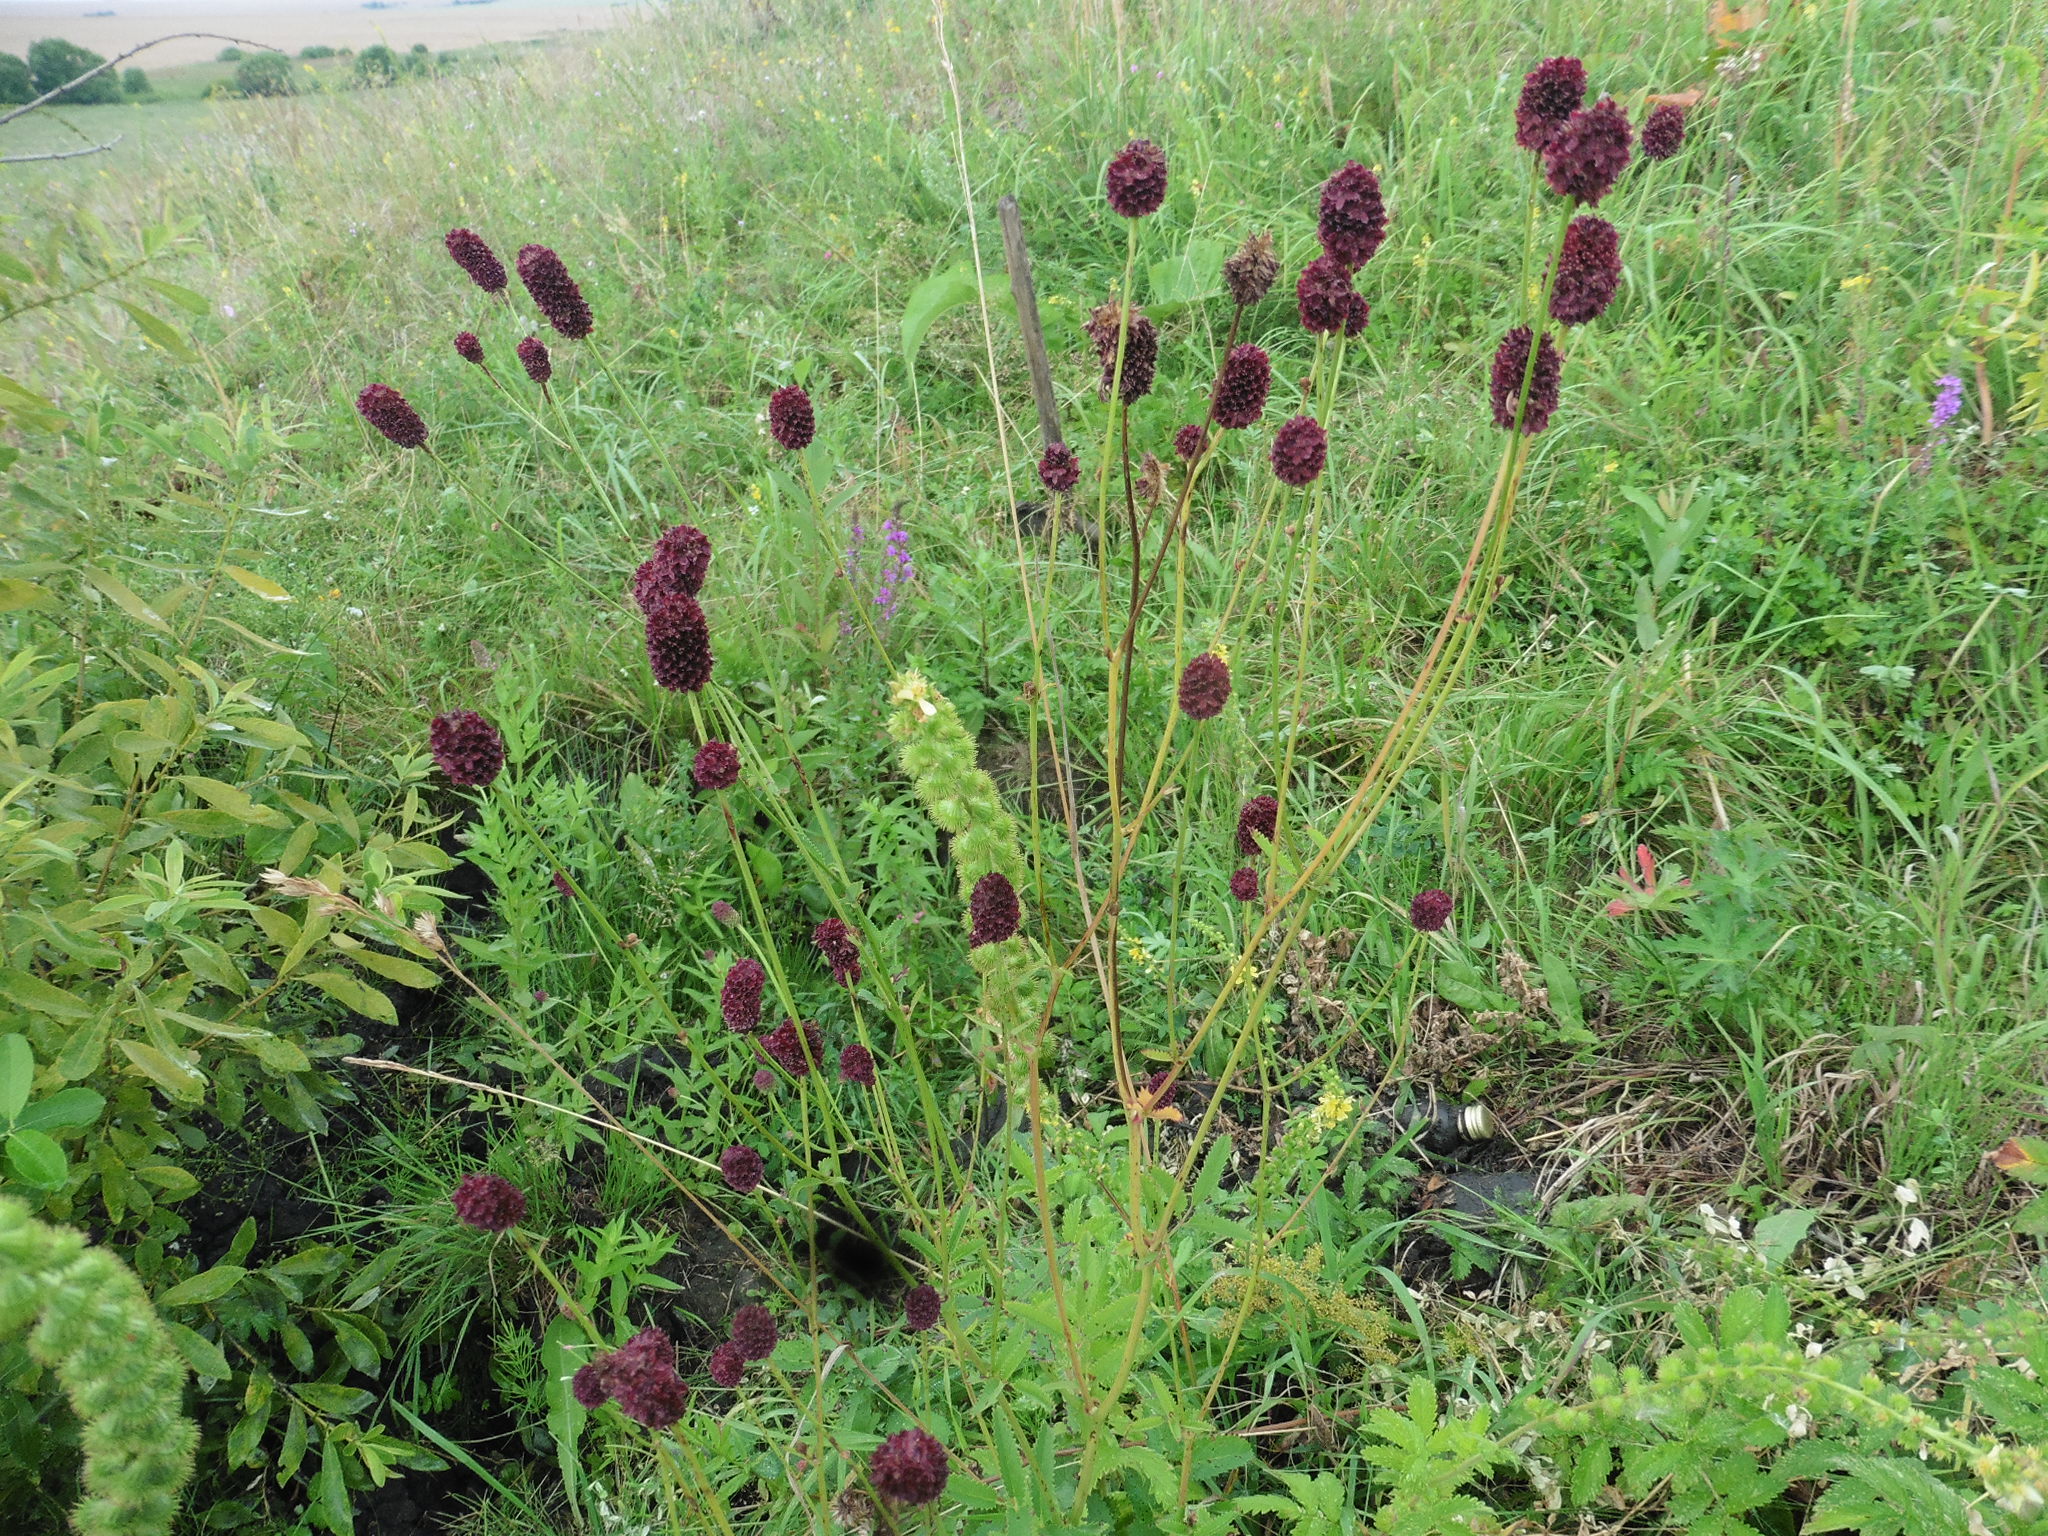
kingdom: Plantae
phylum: Tracheophyta
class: Magnoliopsida
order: Rosales
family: Rosaceae
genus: Sanguisorba
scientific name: Sanguisorba officinalis
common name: Great burnet
